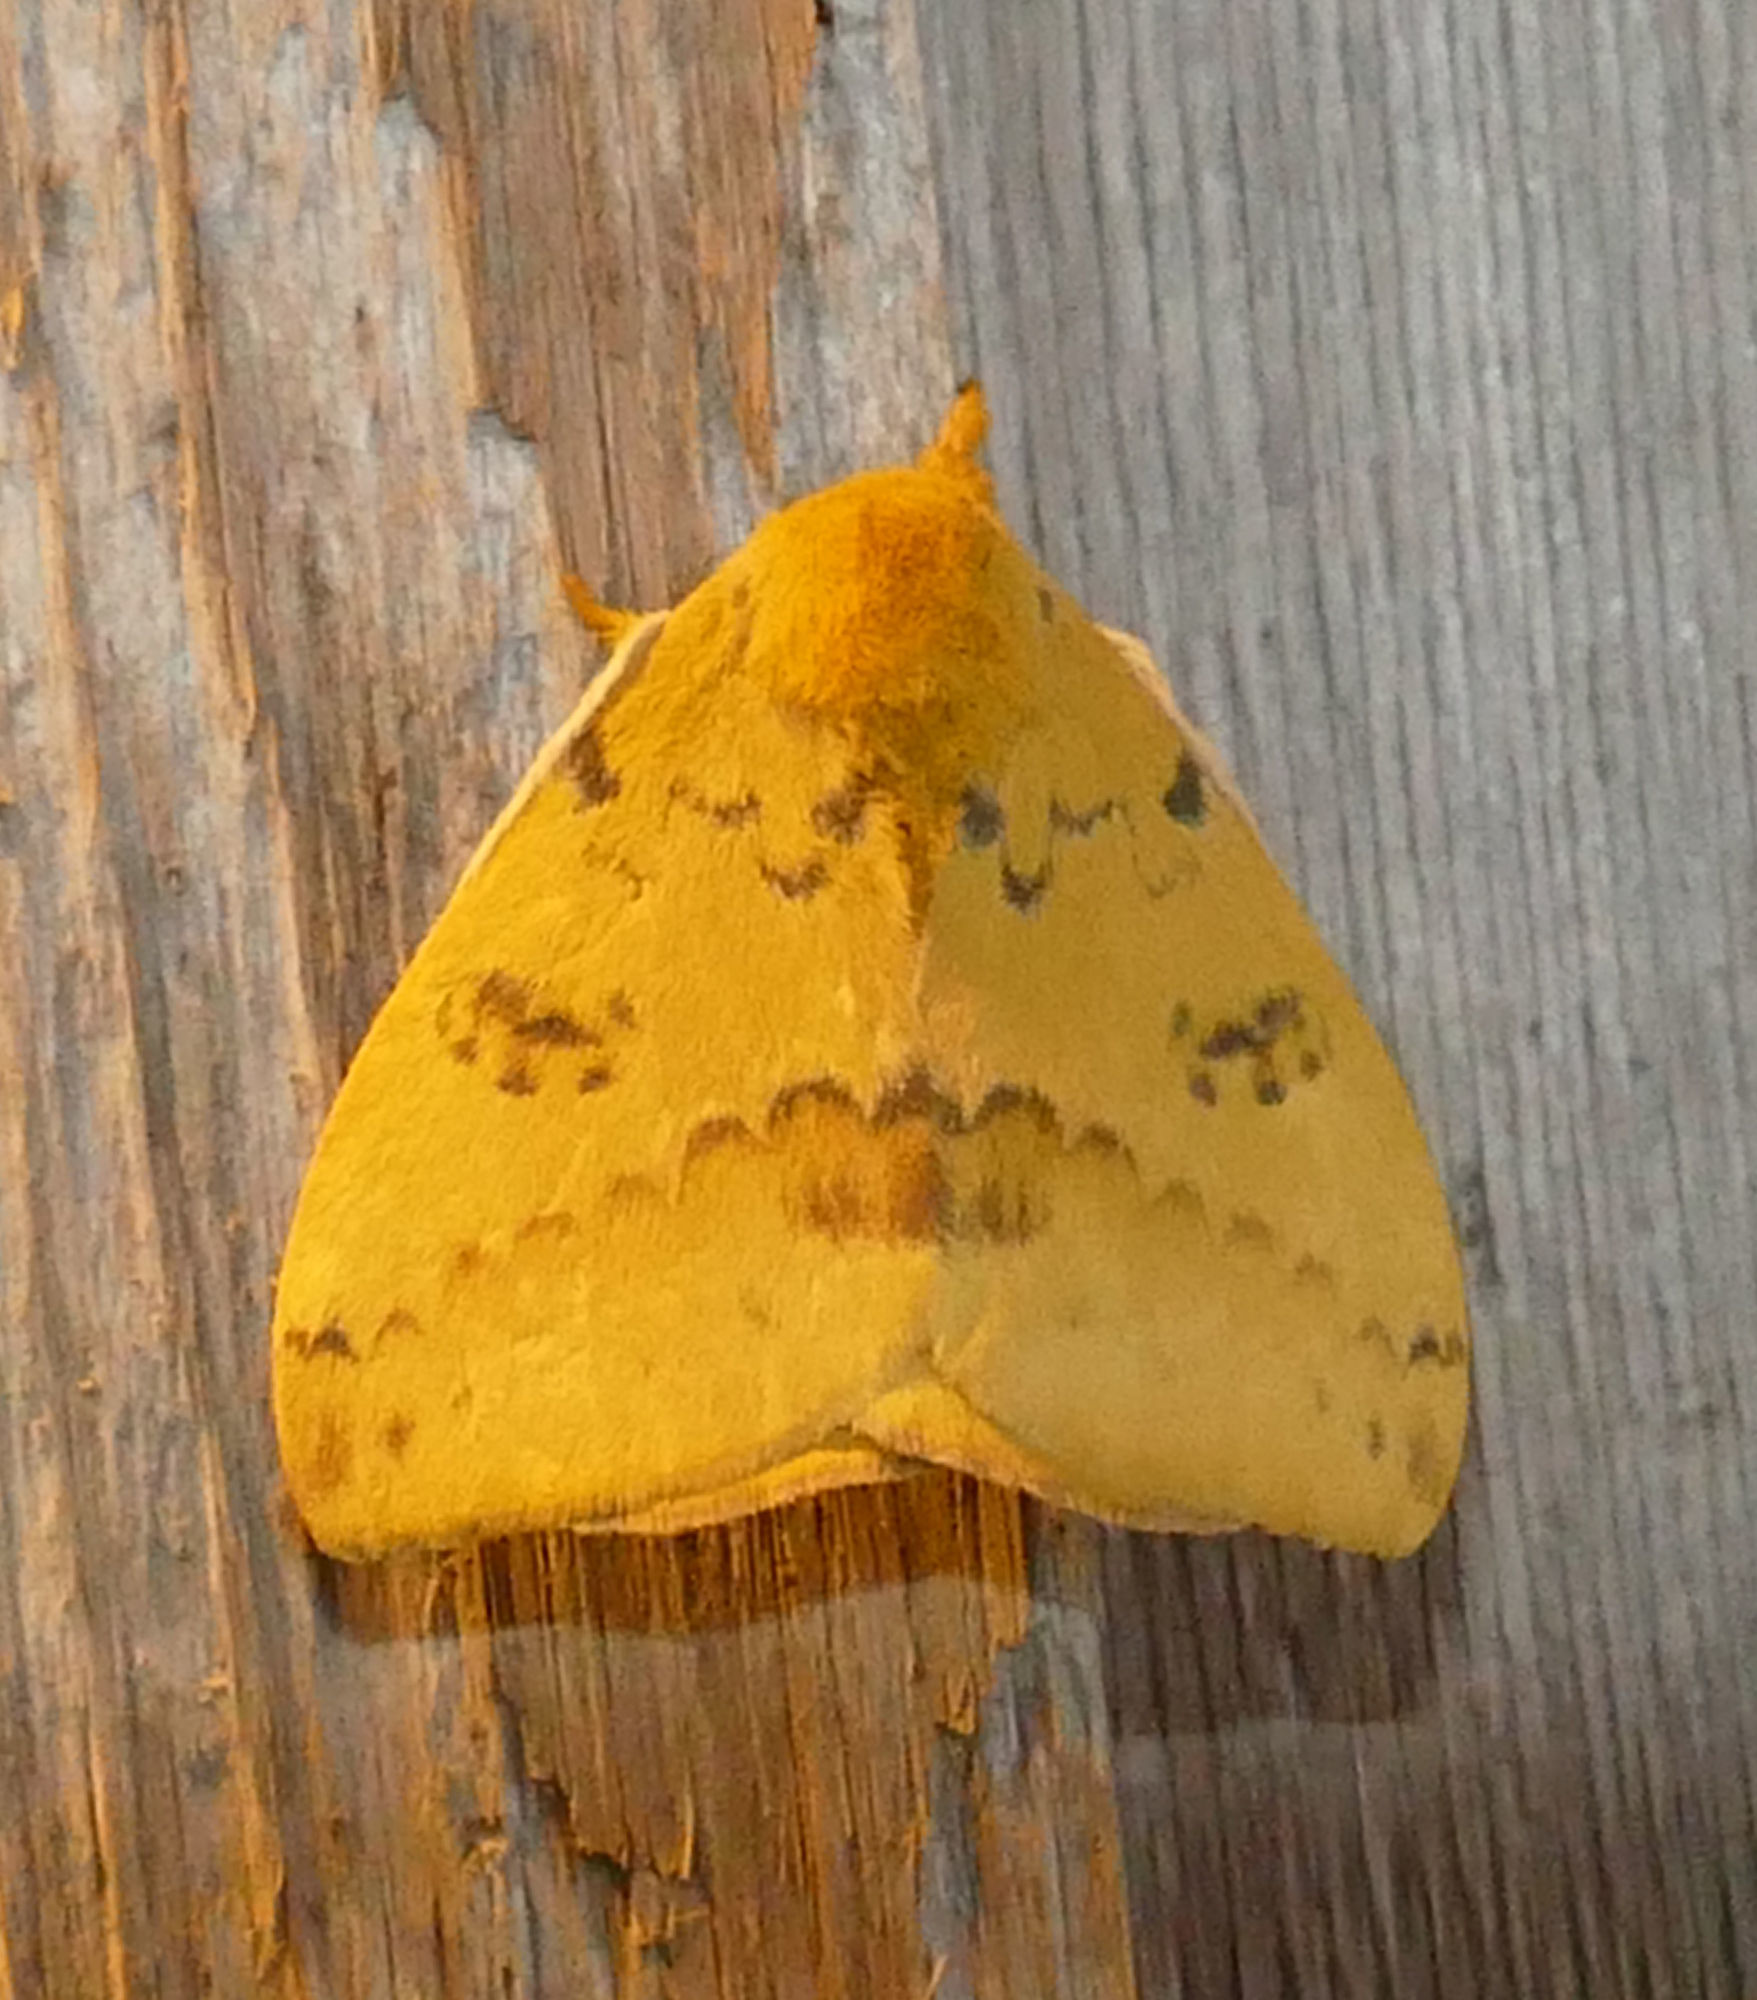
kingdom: Animalia
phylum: Arthropoda
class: Insecta
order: Lepidoptera
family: Saturniidae
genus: Automeris
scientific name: Automeris io
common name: Io moth
